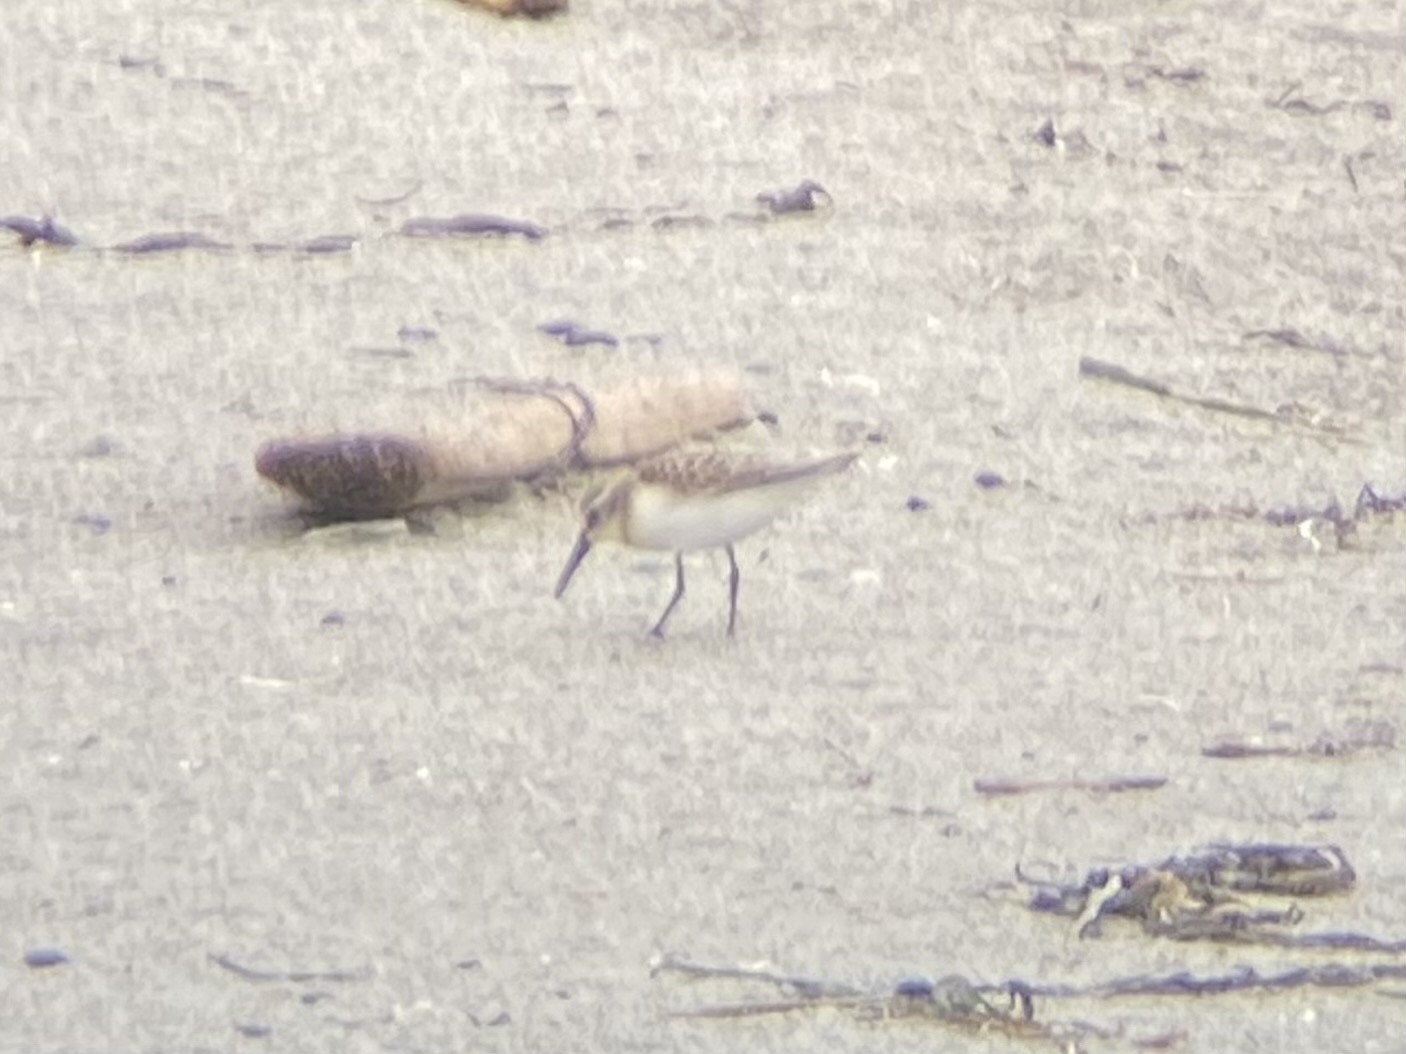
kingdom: Animalia
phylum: Chordata
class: Aves
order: Charadriiformes
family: Scolopacidae
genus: Calidris
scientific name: Calidris mauri
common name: Western sandpiper
